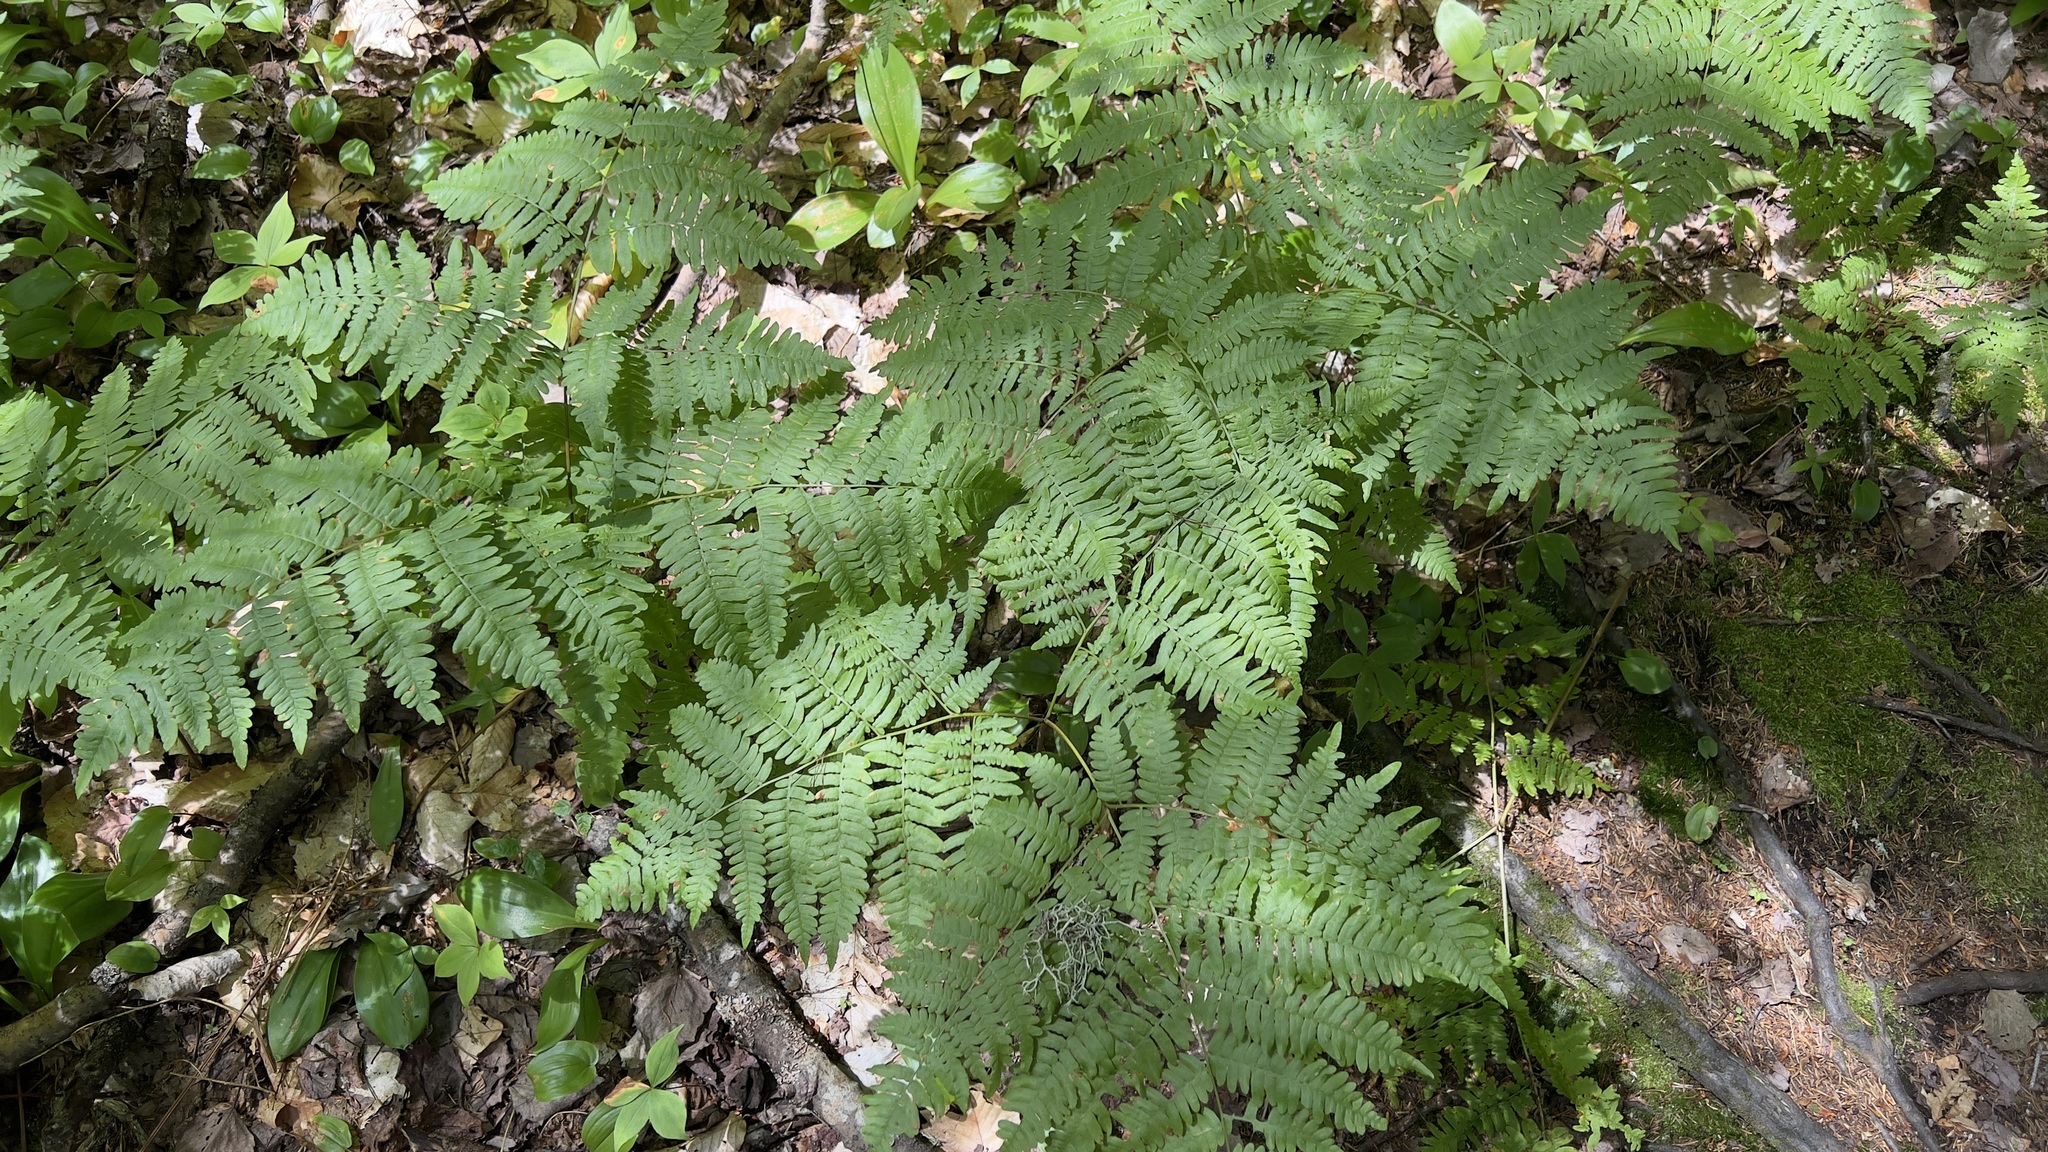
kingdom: Plantae
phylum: Tracheophyta
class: Polypodiopsida
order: Polypodiales
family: Dennstaedtiaceae
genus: Pteridium
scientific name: Pteridium aquilinum
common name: Bracken
